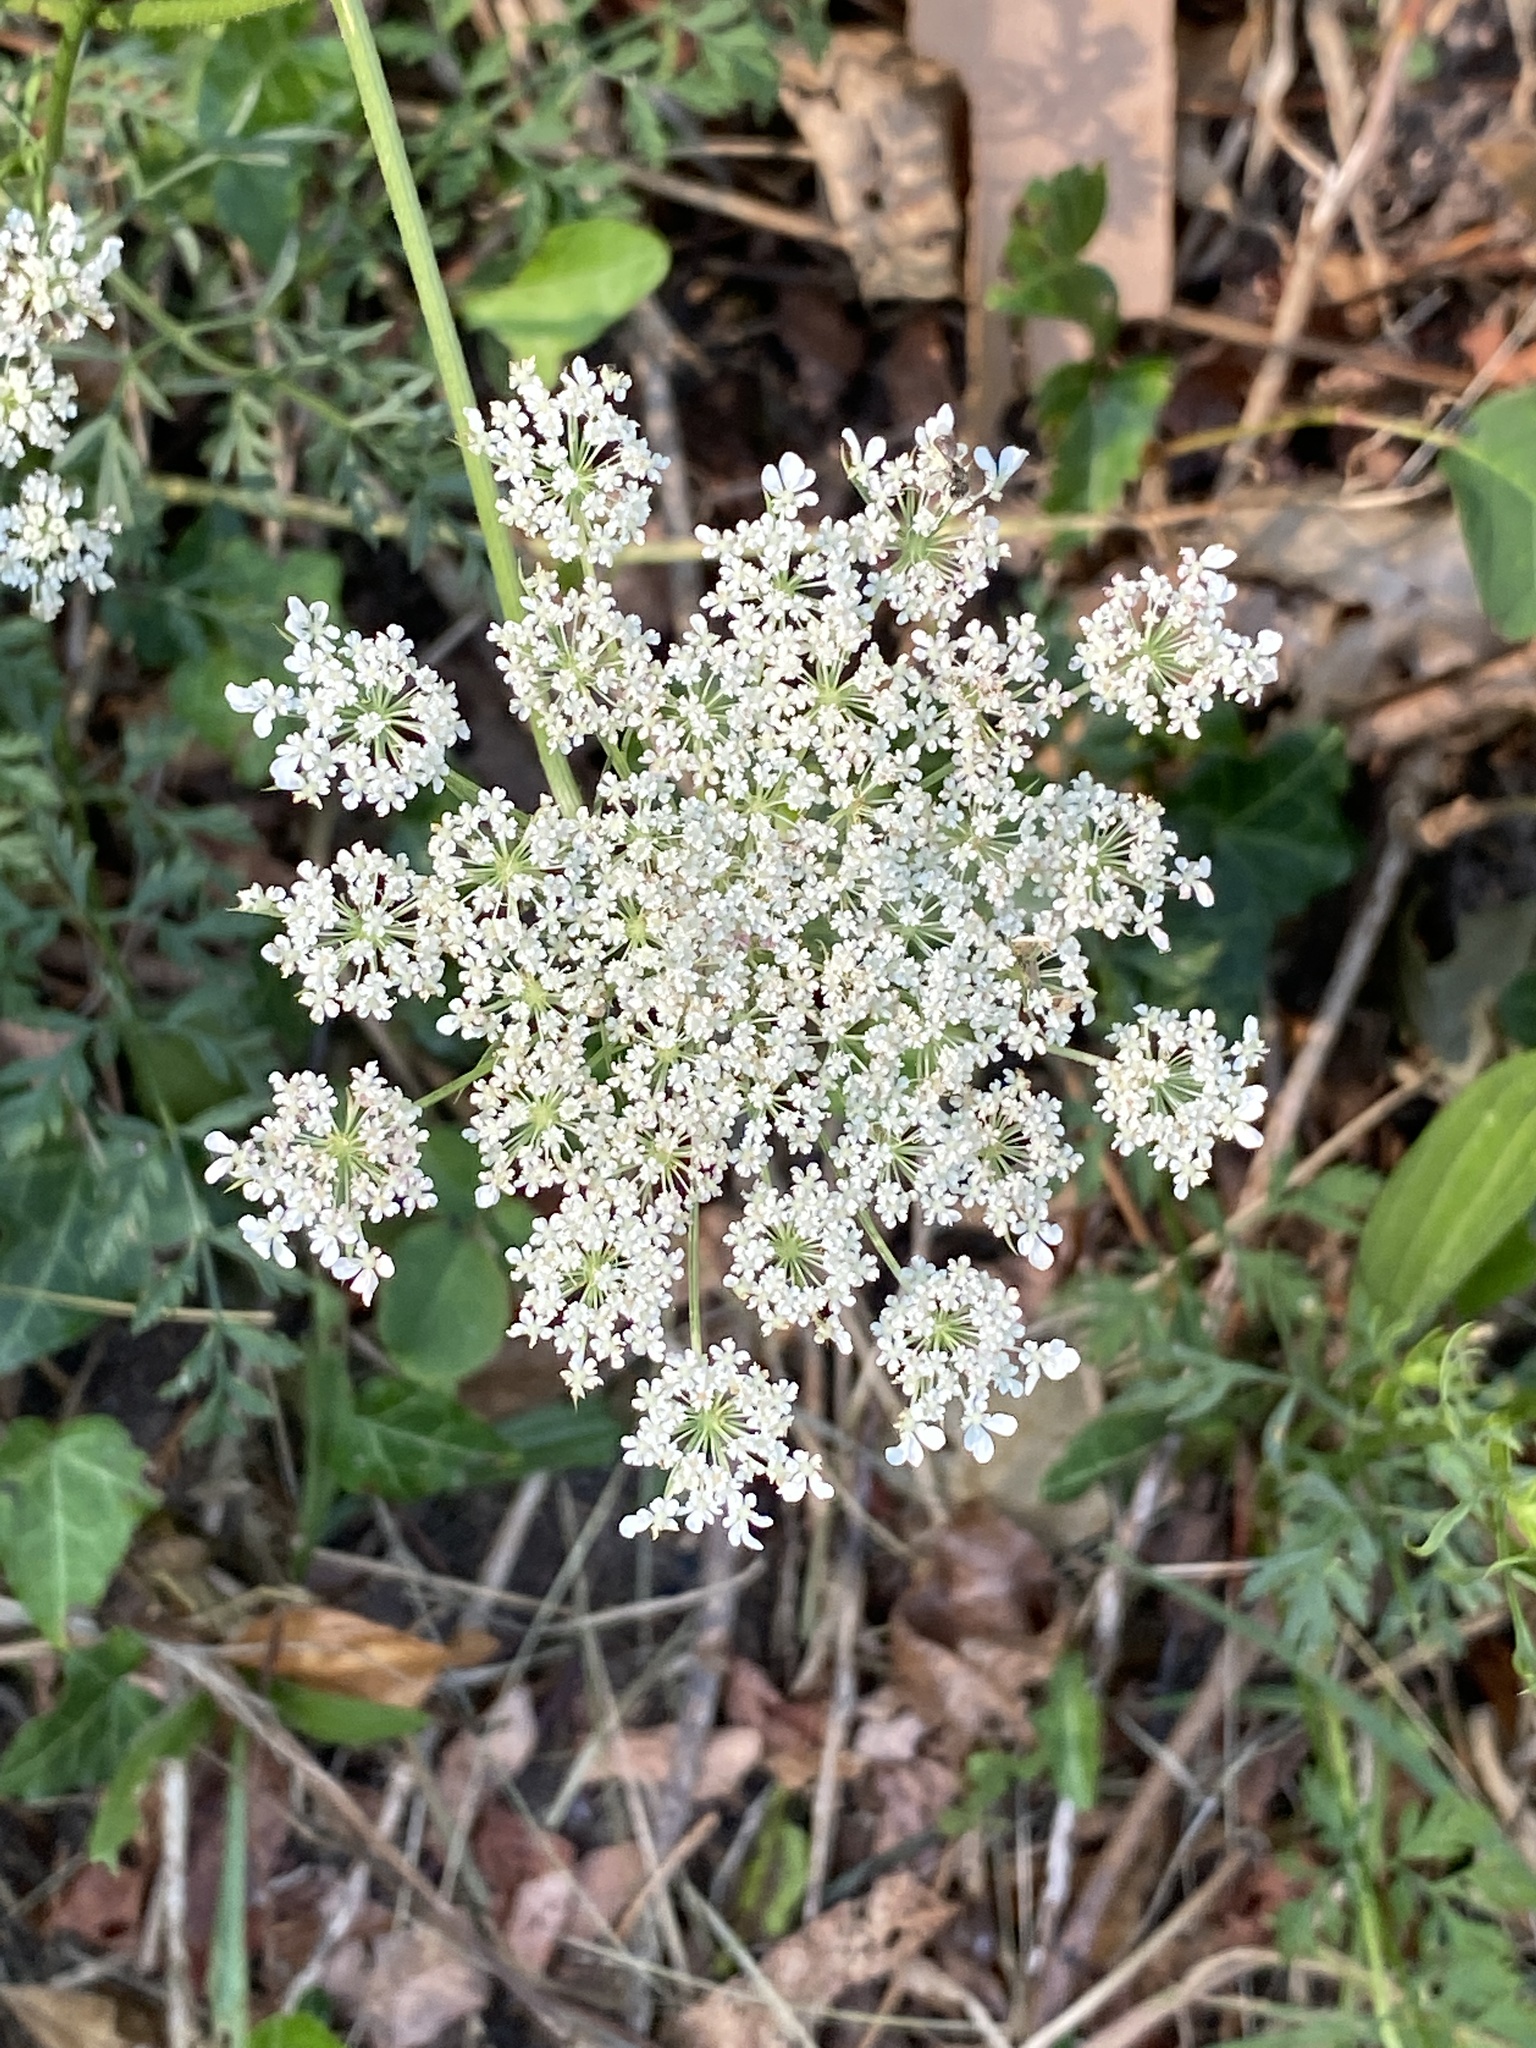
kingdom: Plantae
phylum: Tracheophyta
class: Magnoliopsida
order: Apiales
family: Apiaceae
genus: Daucus
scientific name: Daucus carota
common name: Wild carrot
